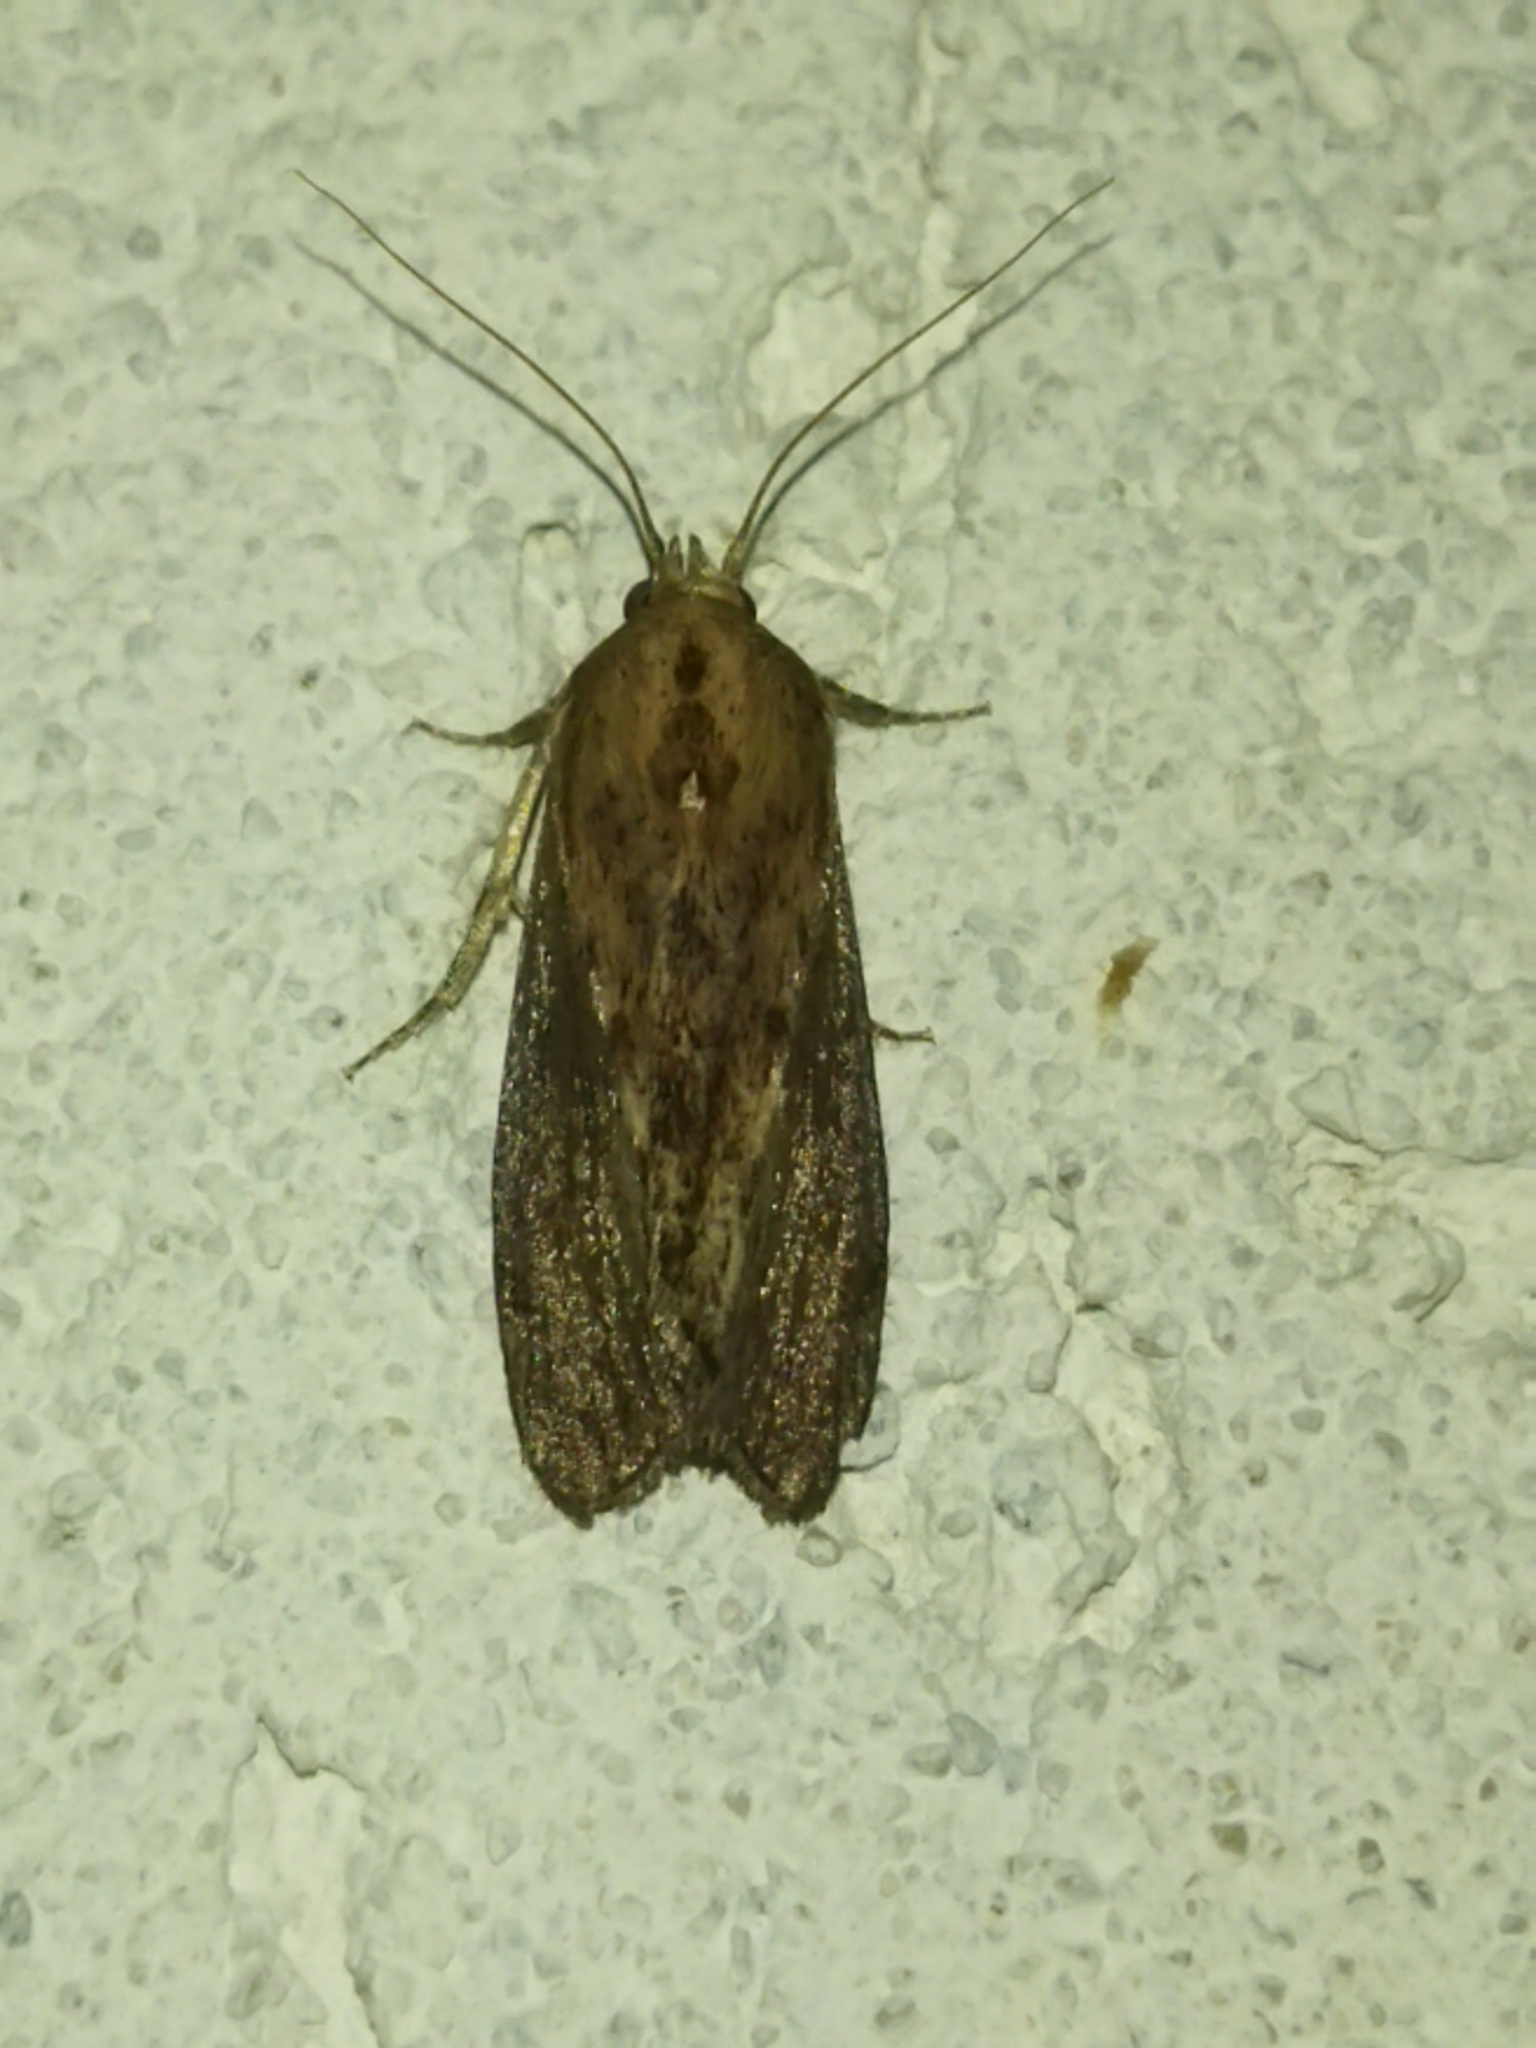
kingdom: Animalia
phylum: Arthropoda
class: Insecta
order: Lepidoptera
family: Pyralidae
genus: Galleria
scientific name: Galleria mellonella
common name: Greater wax moth
